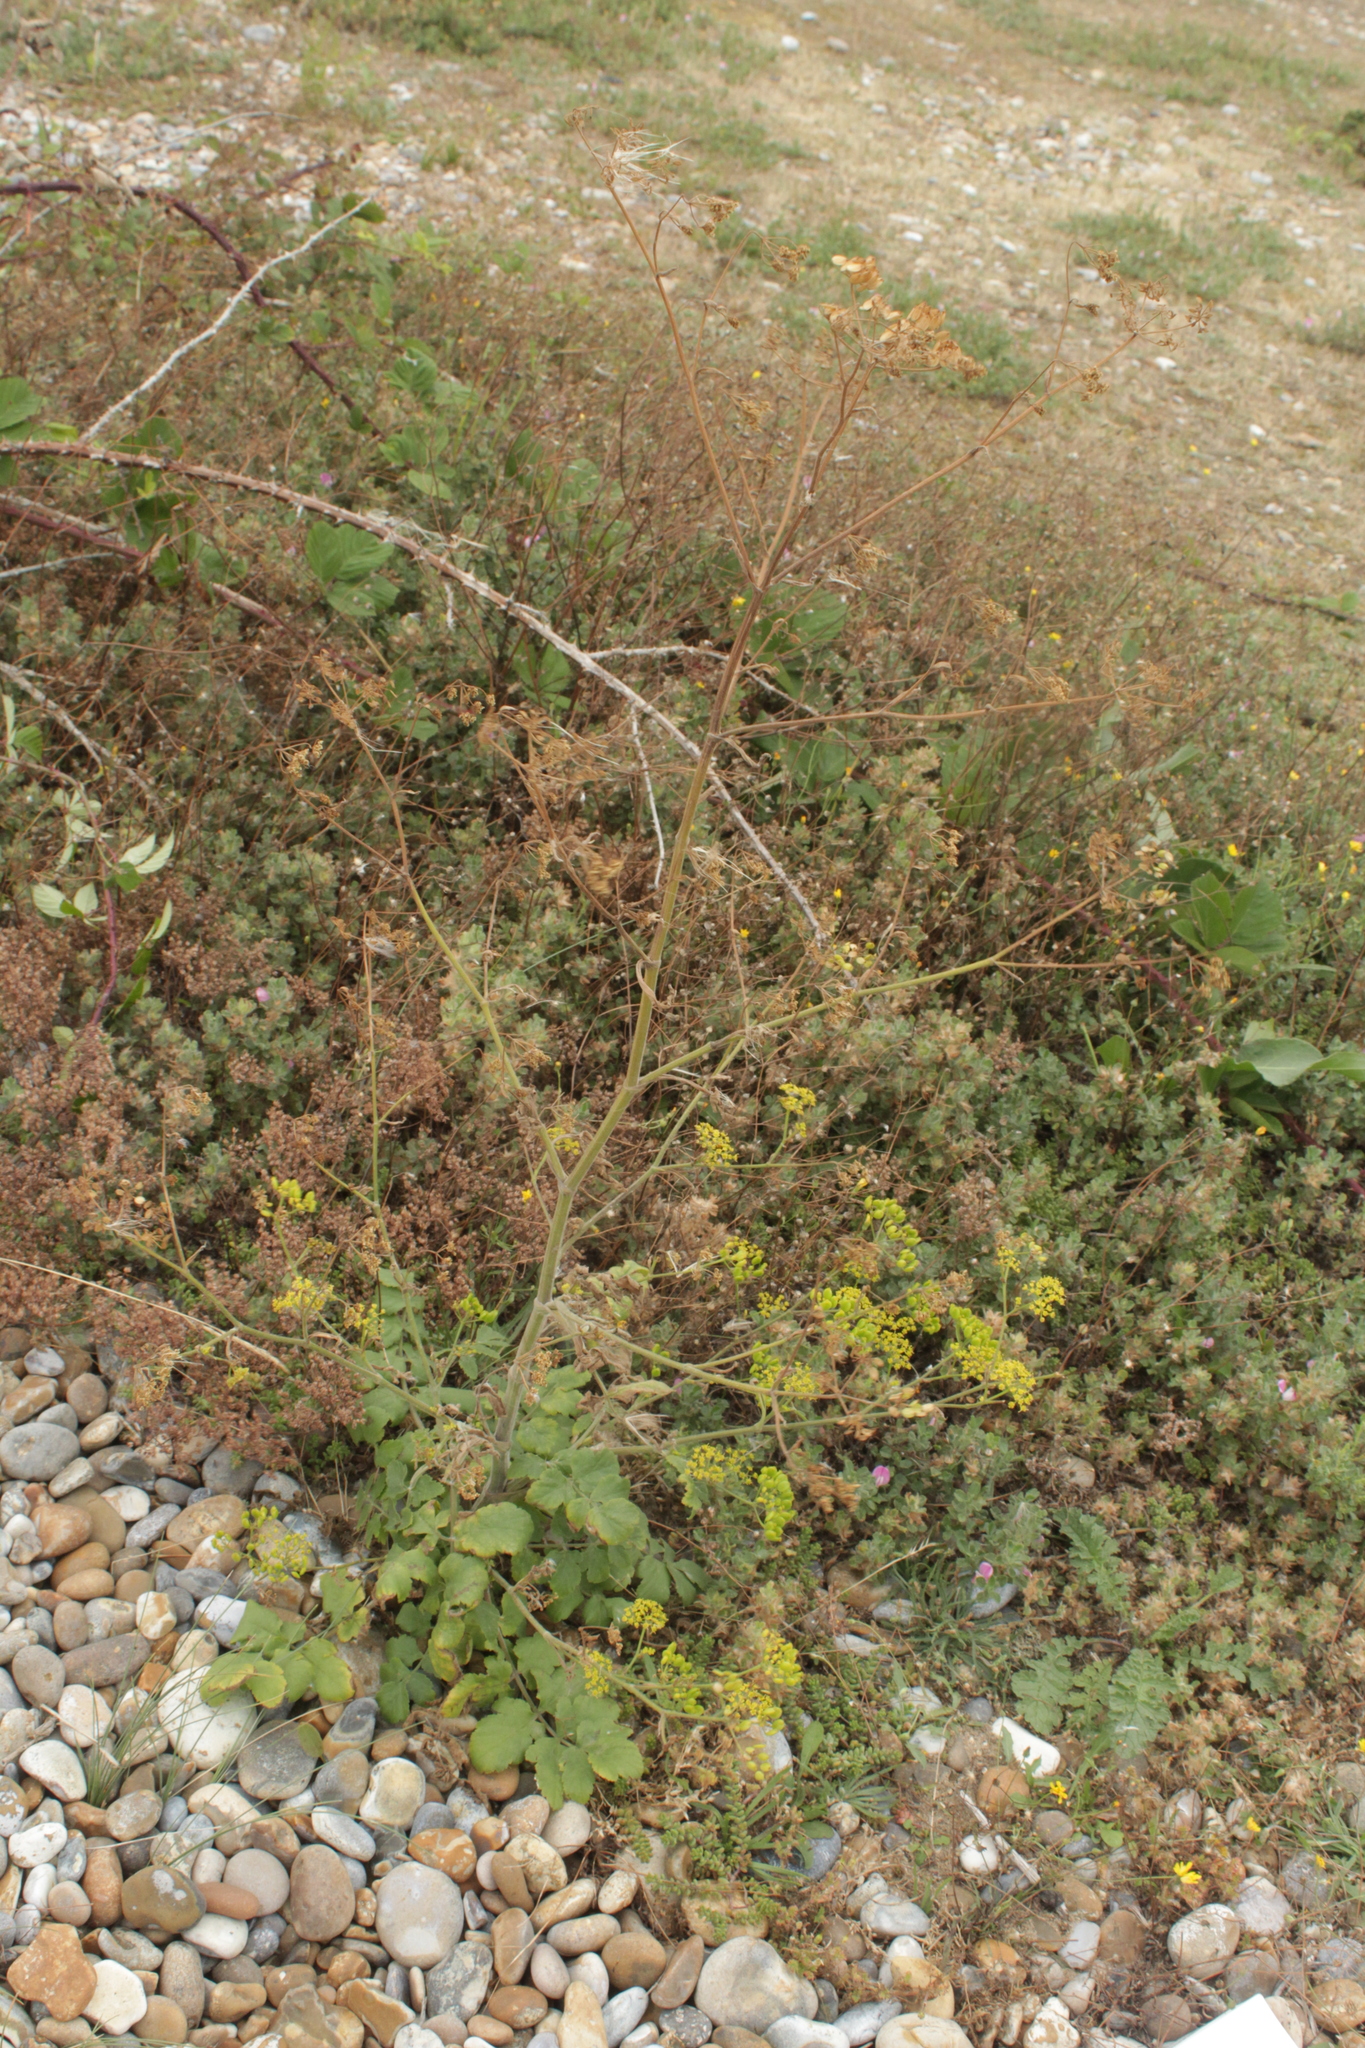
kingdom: Plantae
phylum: Tracheophyta
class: Magnoliopsida
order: Apiales
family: Apiaceae
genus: Pastinaca
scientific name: Pastinaca sativa
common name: Wild parsnip
